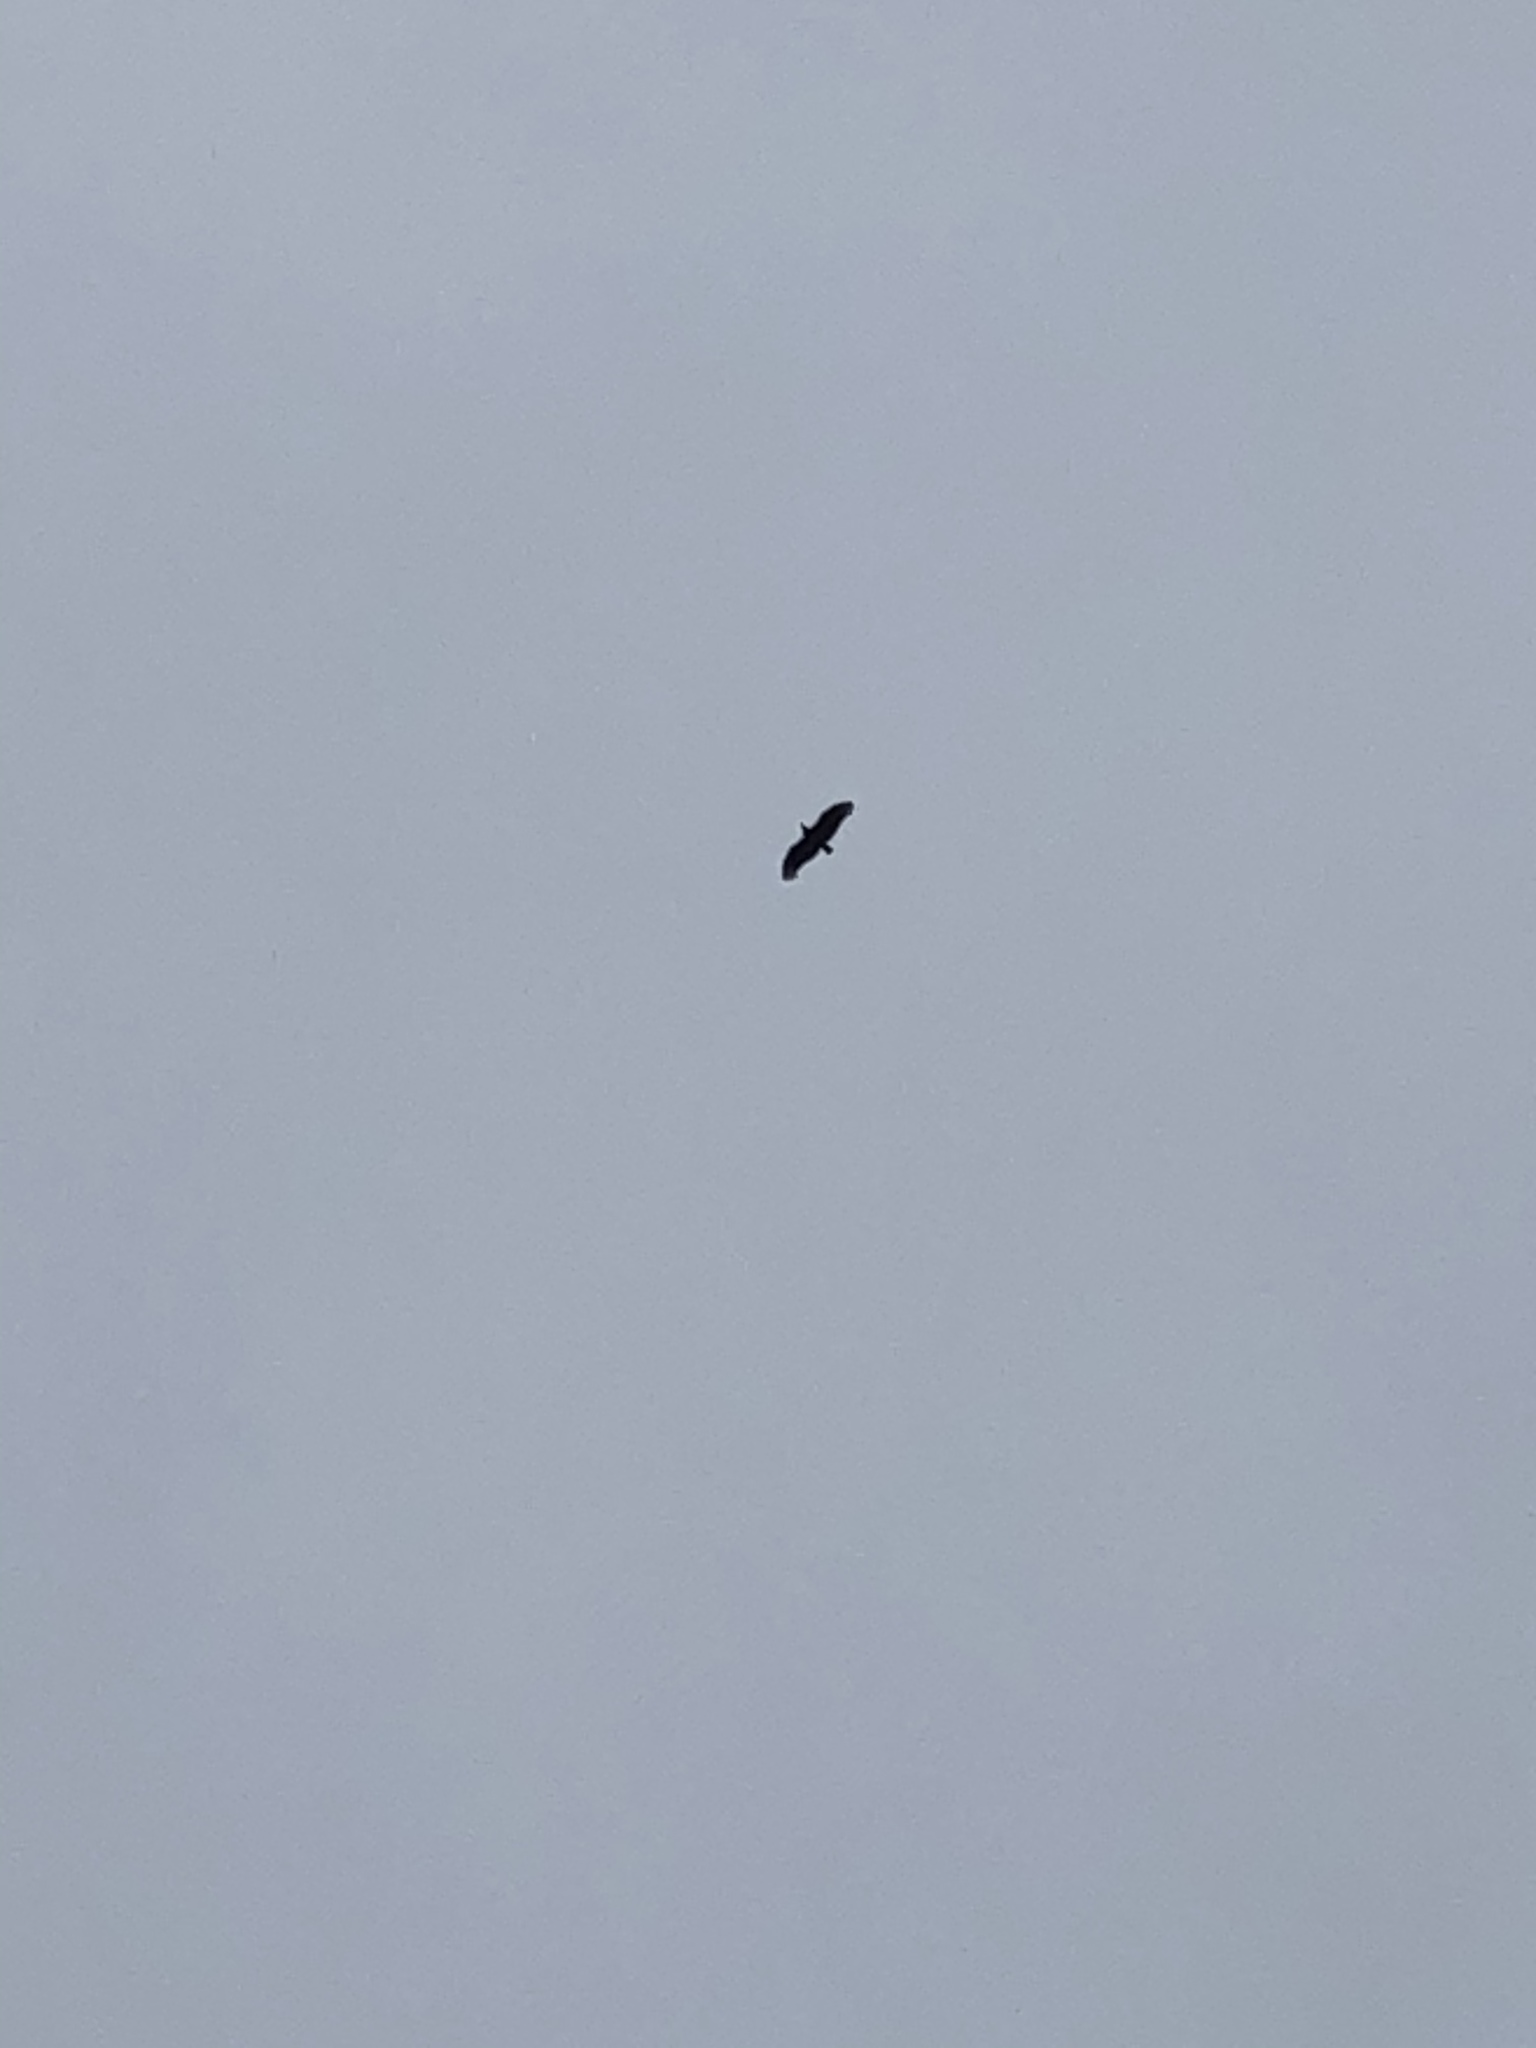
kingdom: Animalia
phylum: Chordata
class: Aves
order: Accipitriformes
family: Cathartidae
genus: Coragyps
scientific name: Coragyps atratus
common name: Black vulture
